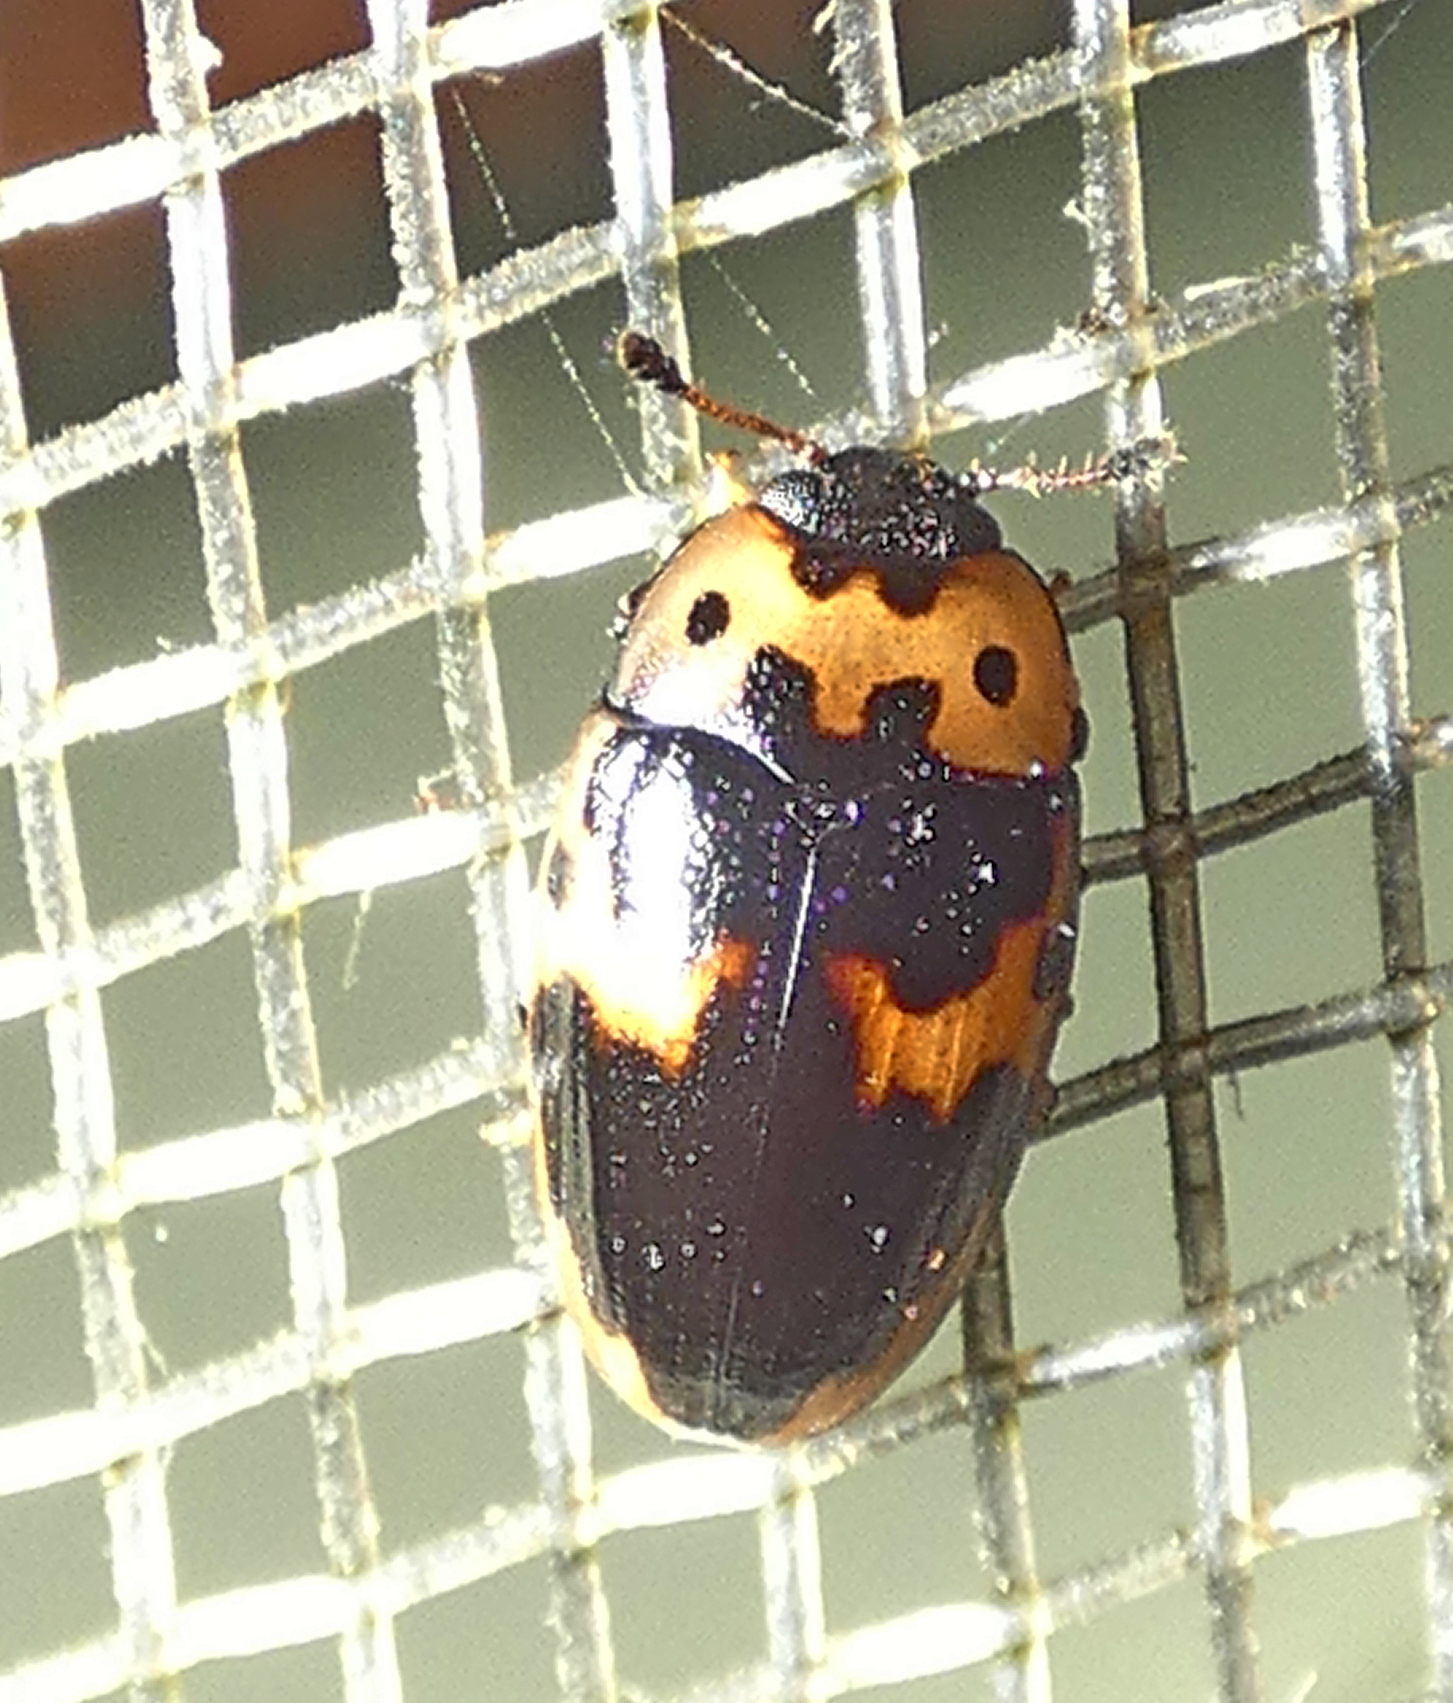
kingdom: Animalia
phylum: Arthropoda
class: Insecta
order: Coleoptera
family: Erotylidae
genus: Ischyrus
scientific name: Ischyrus incertus
